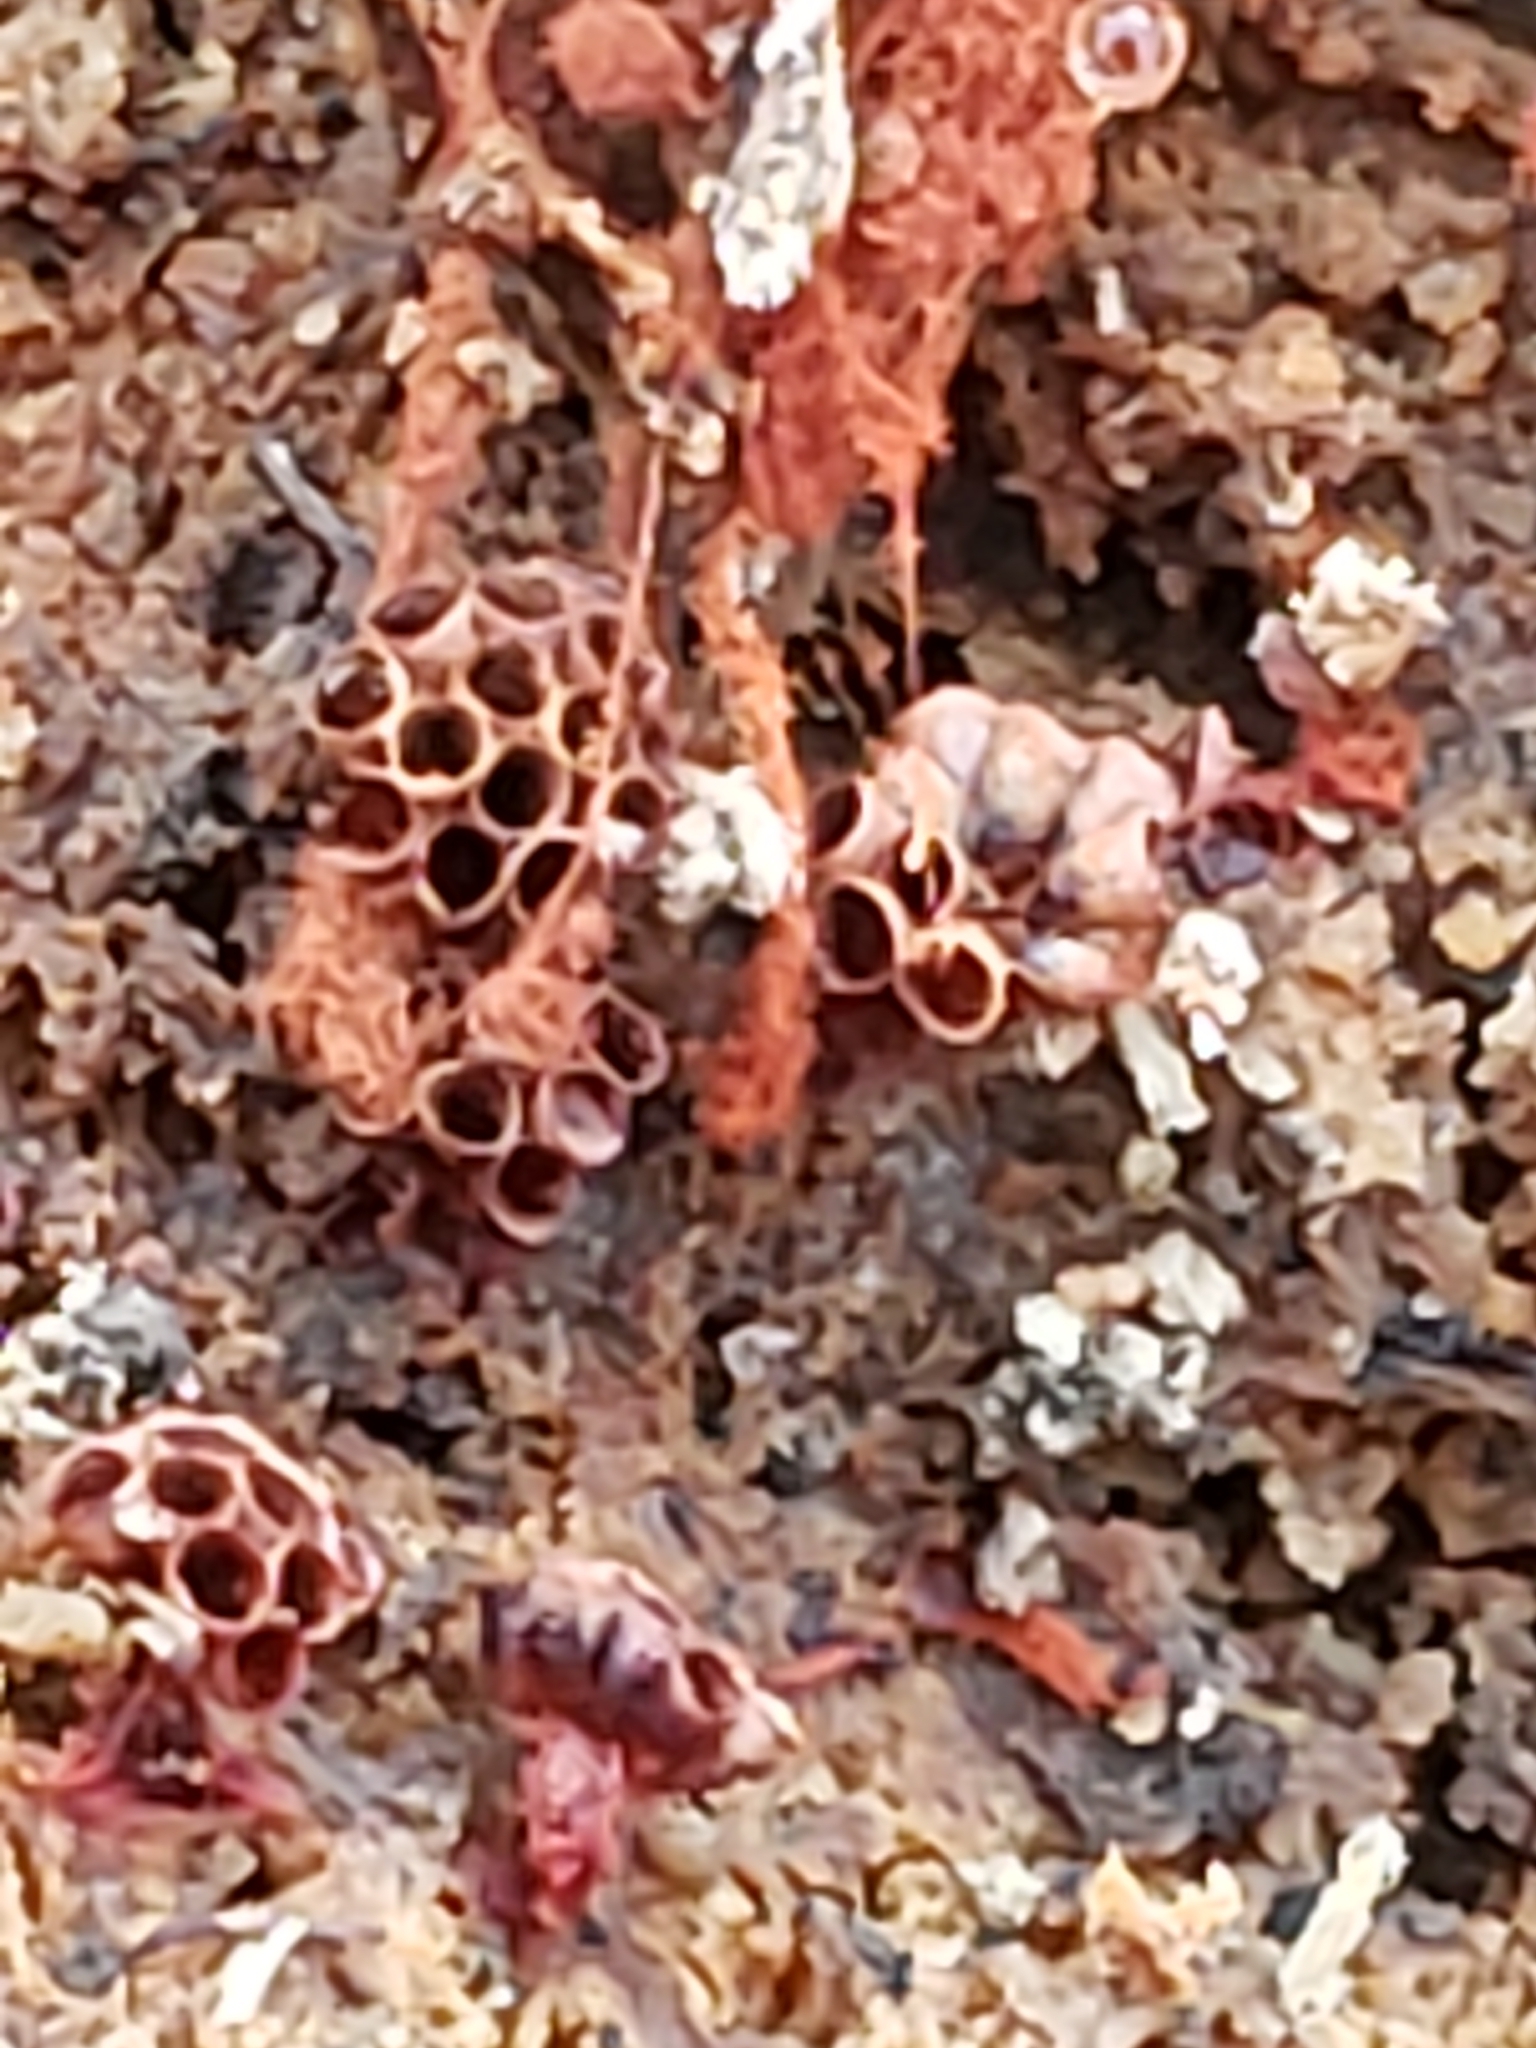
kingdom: Protozoa
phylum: Mycetozoa
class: Myxomycetes
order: Trichiales
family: Trichiaceae
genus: Metatrichia
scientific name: Metatrichia vesparia
